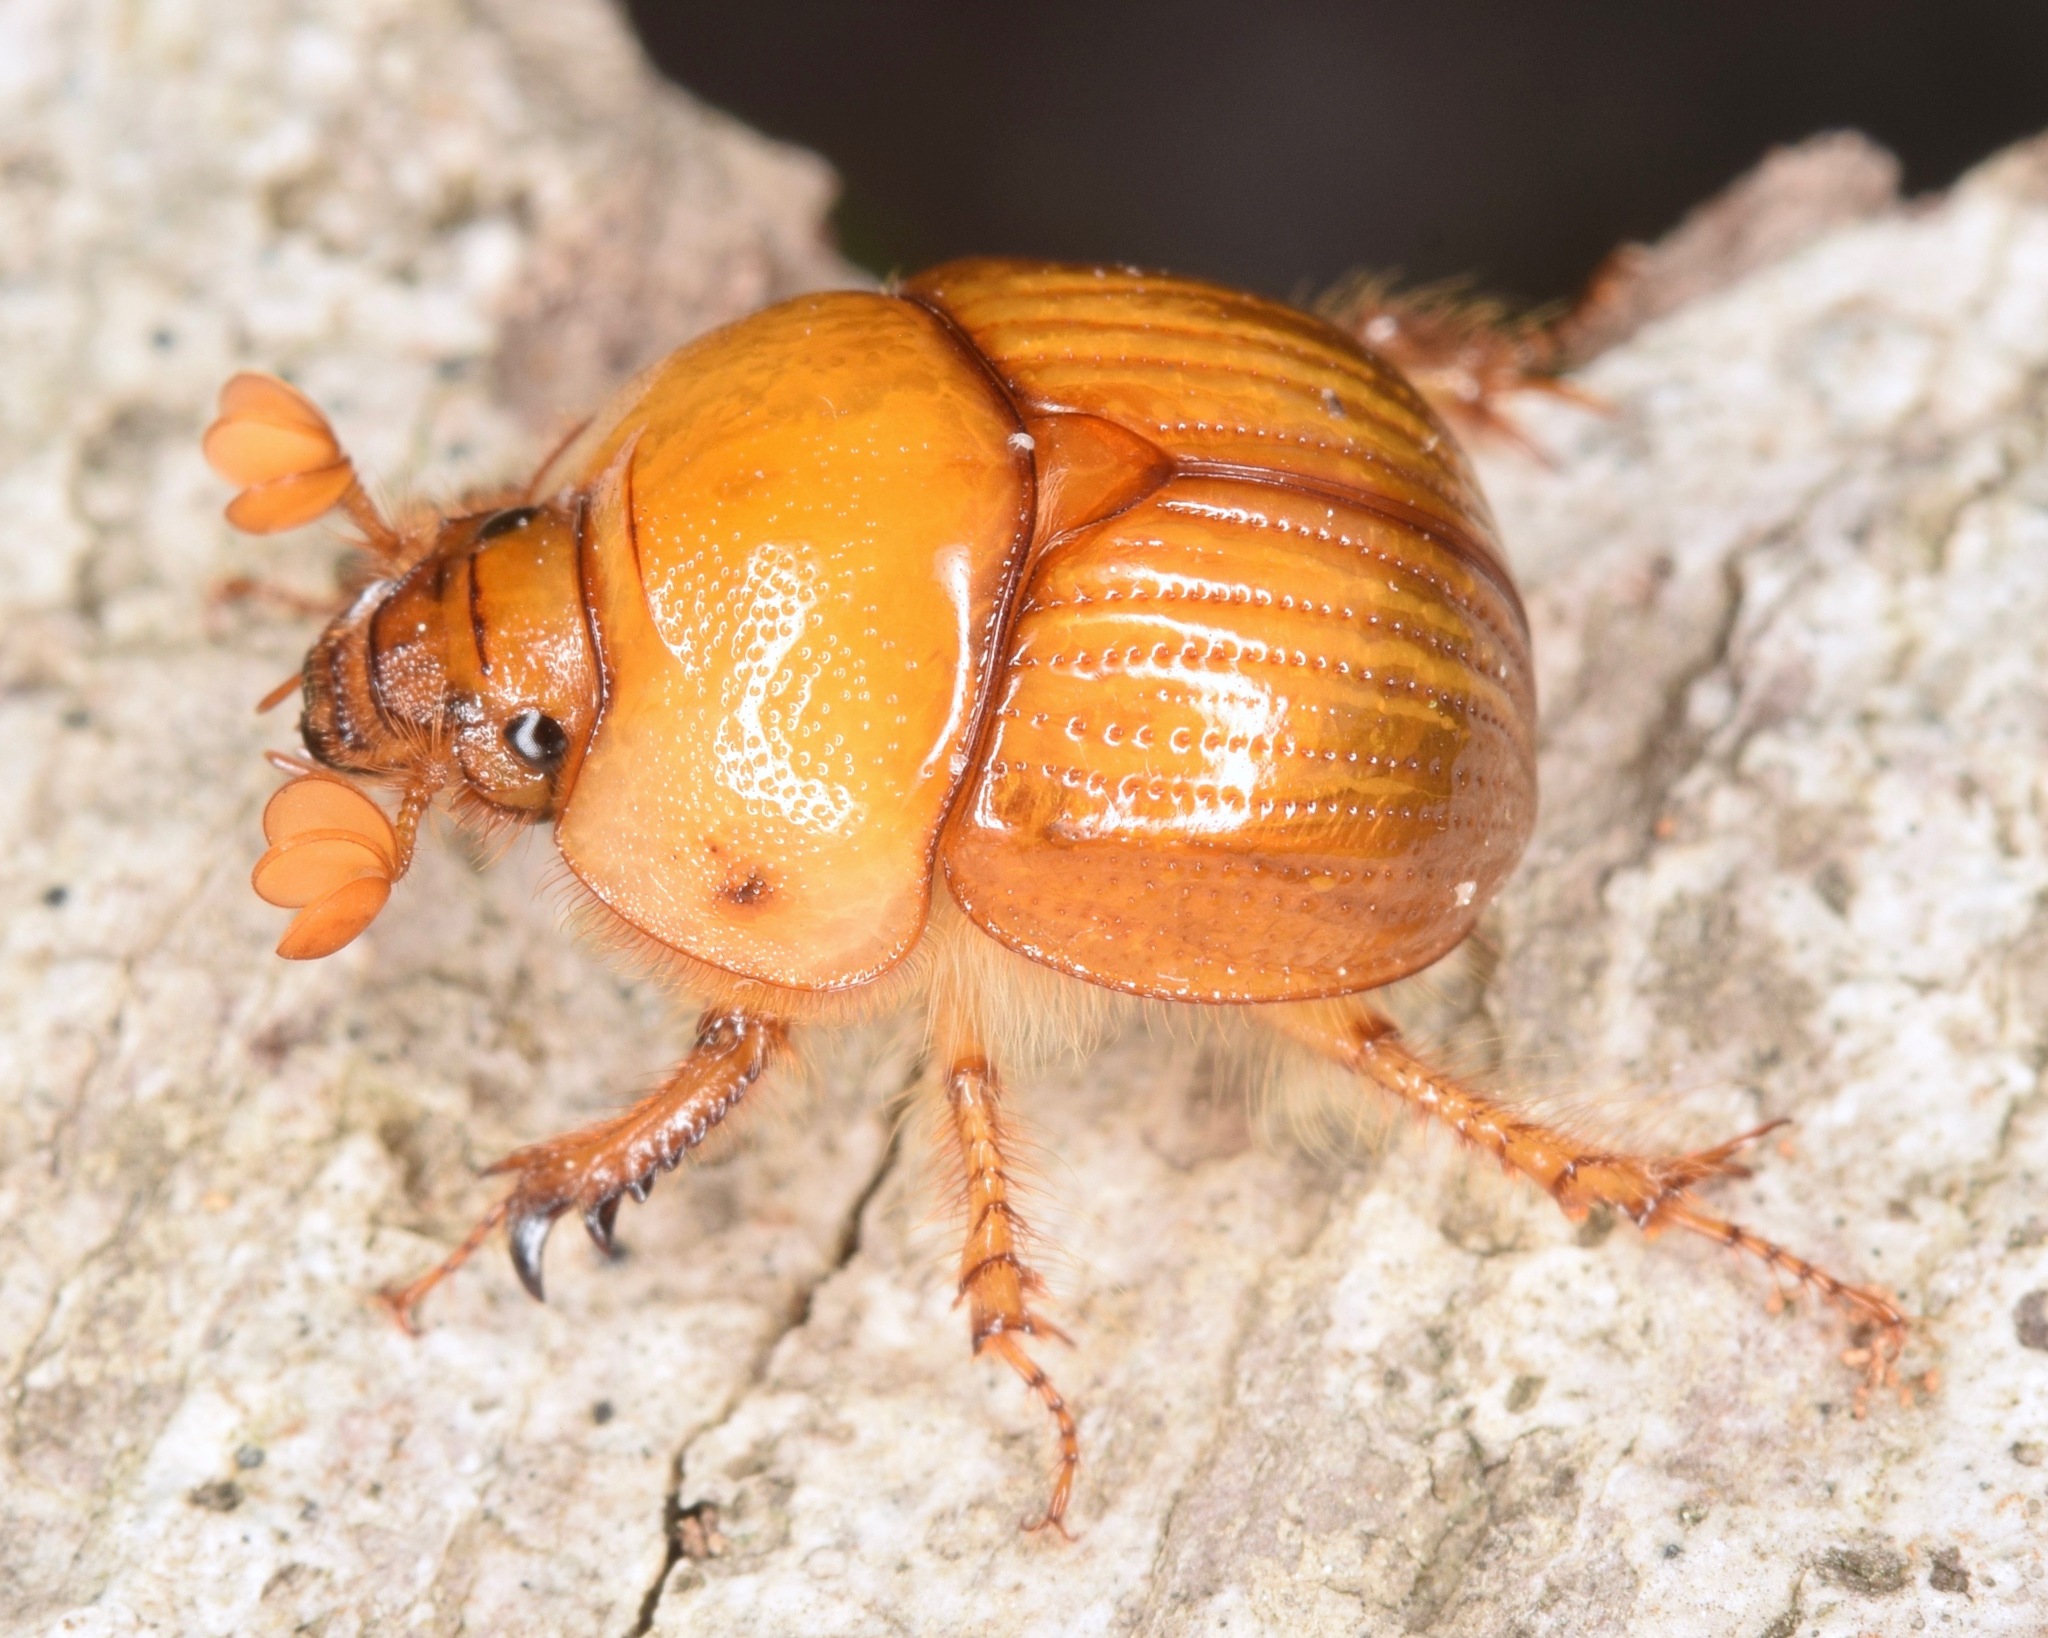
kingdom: Animalia
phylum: Arthropoda
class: Insecta
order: Coleoptera
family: Geotrupidae
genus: Bolbocerosoma
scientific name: Bolbocerosoma farctum
